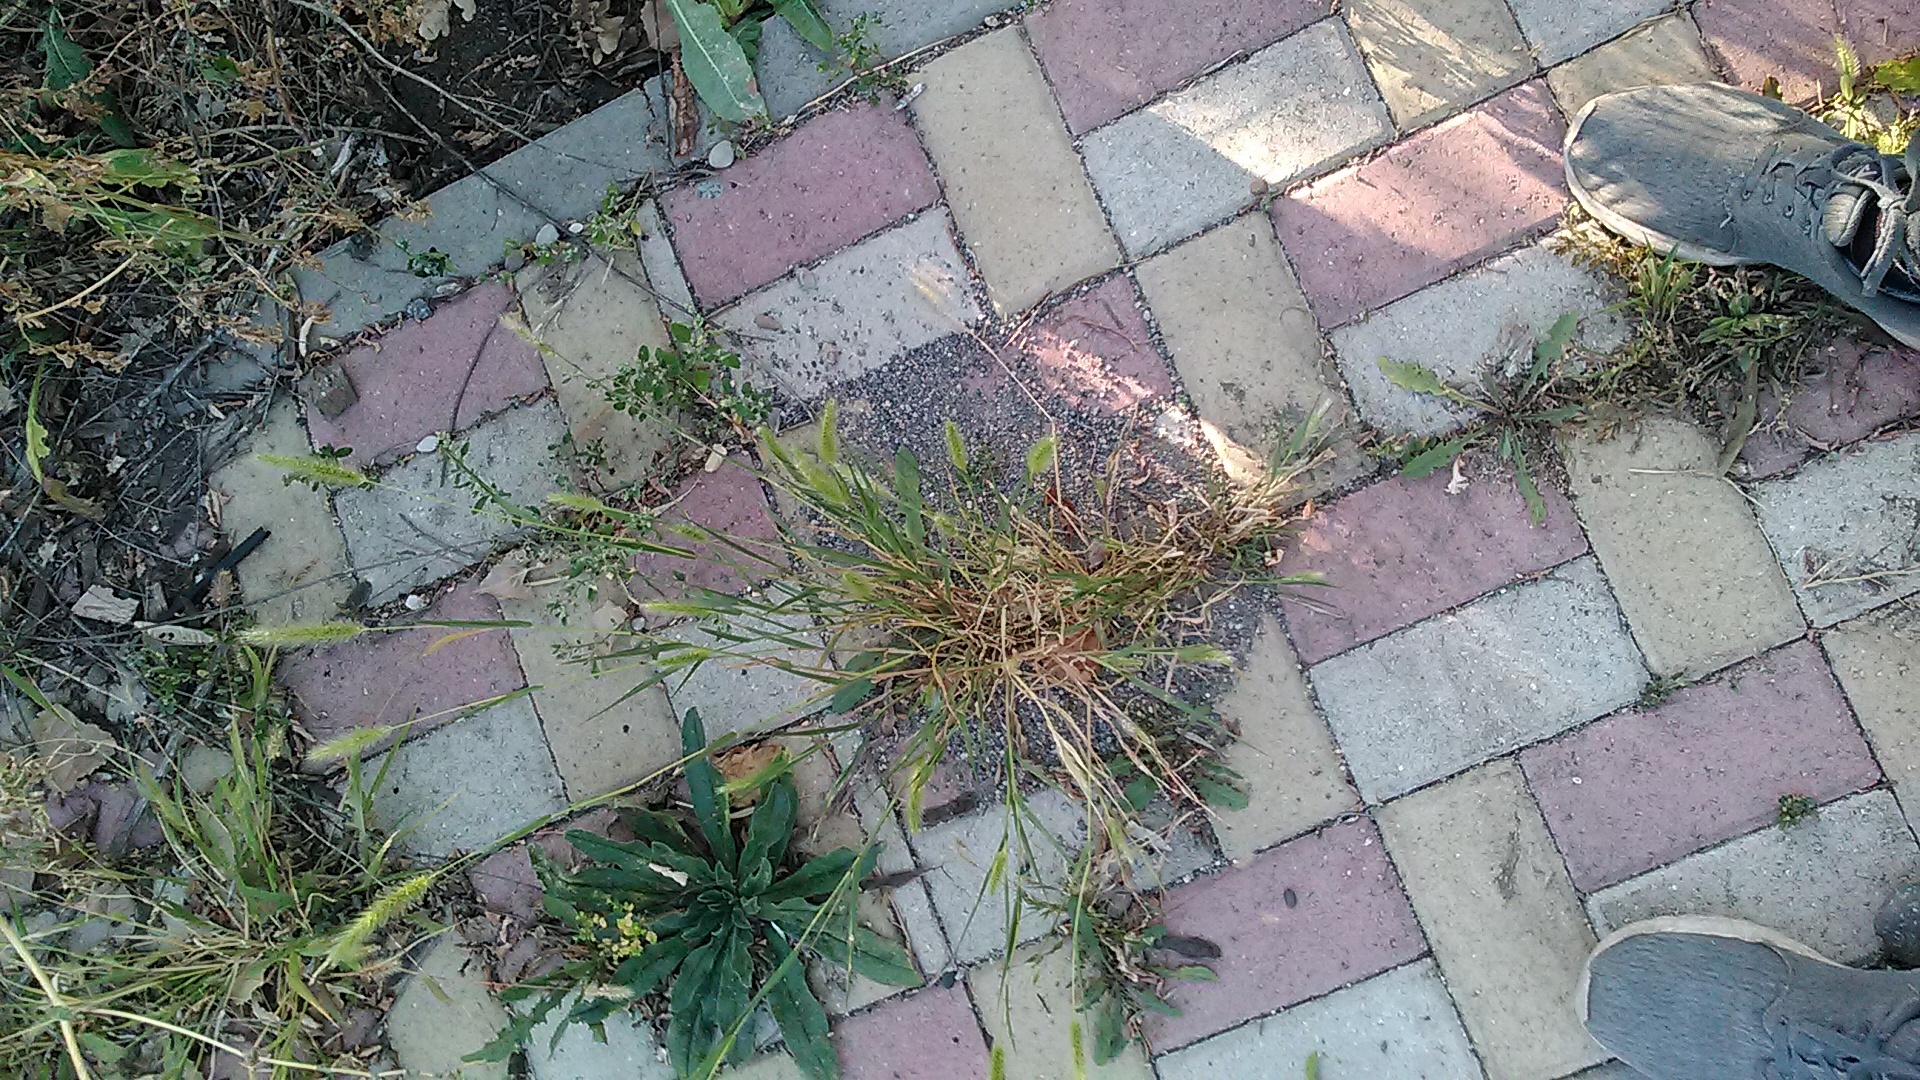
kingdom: Plantae
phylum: Tracheophyta
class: Liliopsida
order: Poales
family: Poaceae
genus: Setaria
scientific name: Setaria viridis
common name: Green bristlegrass
